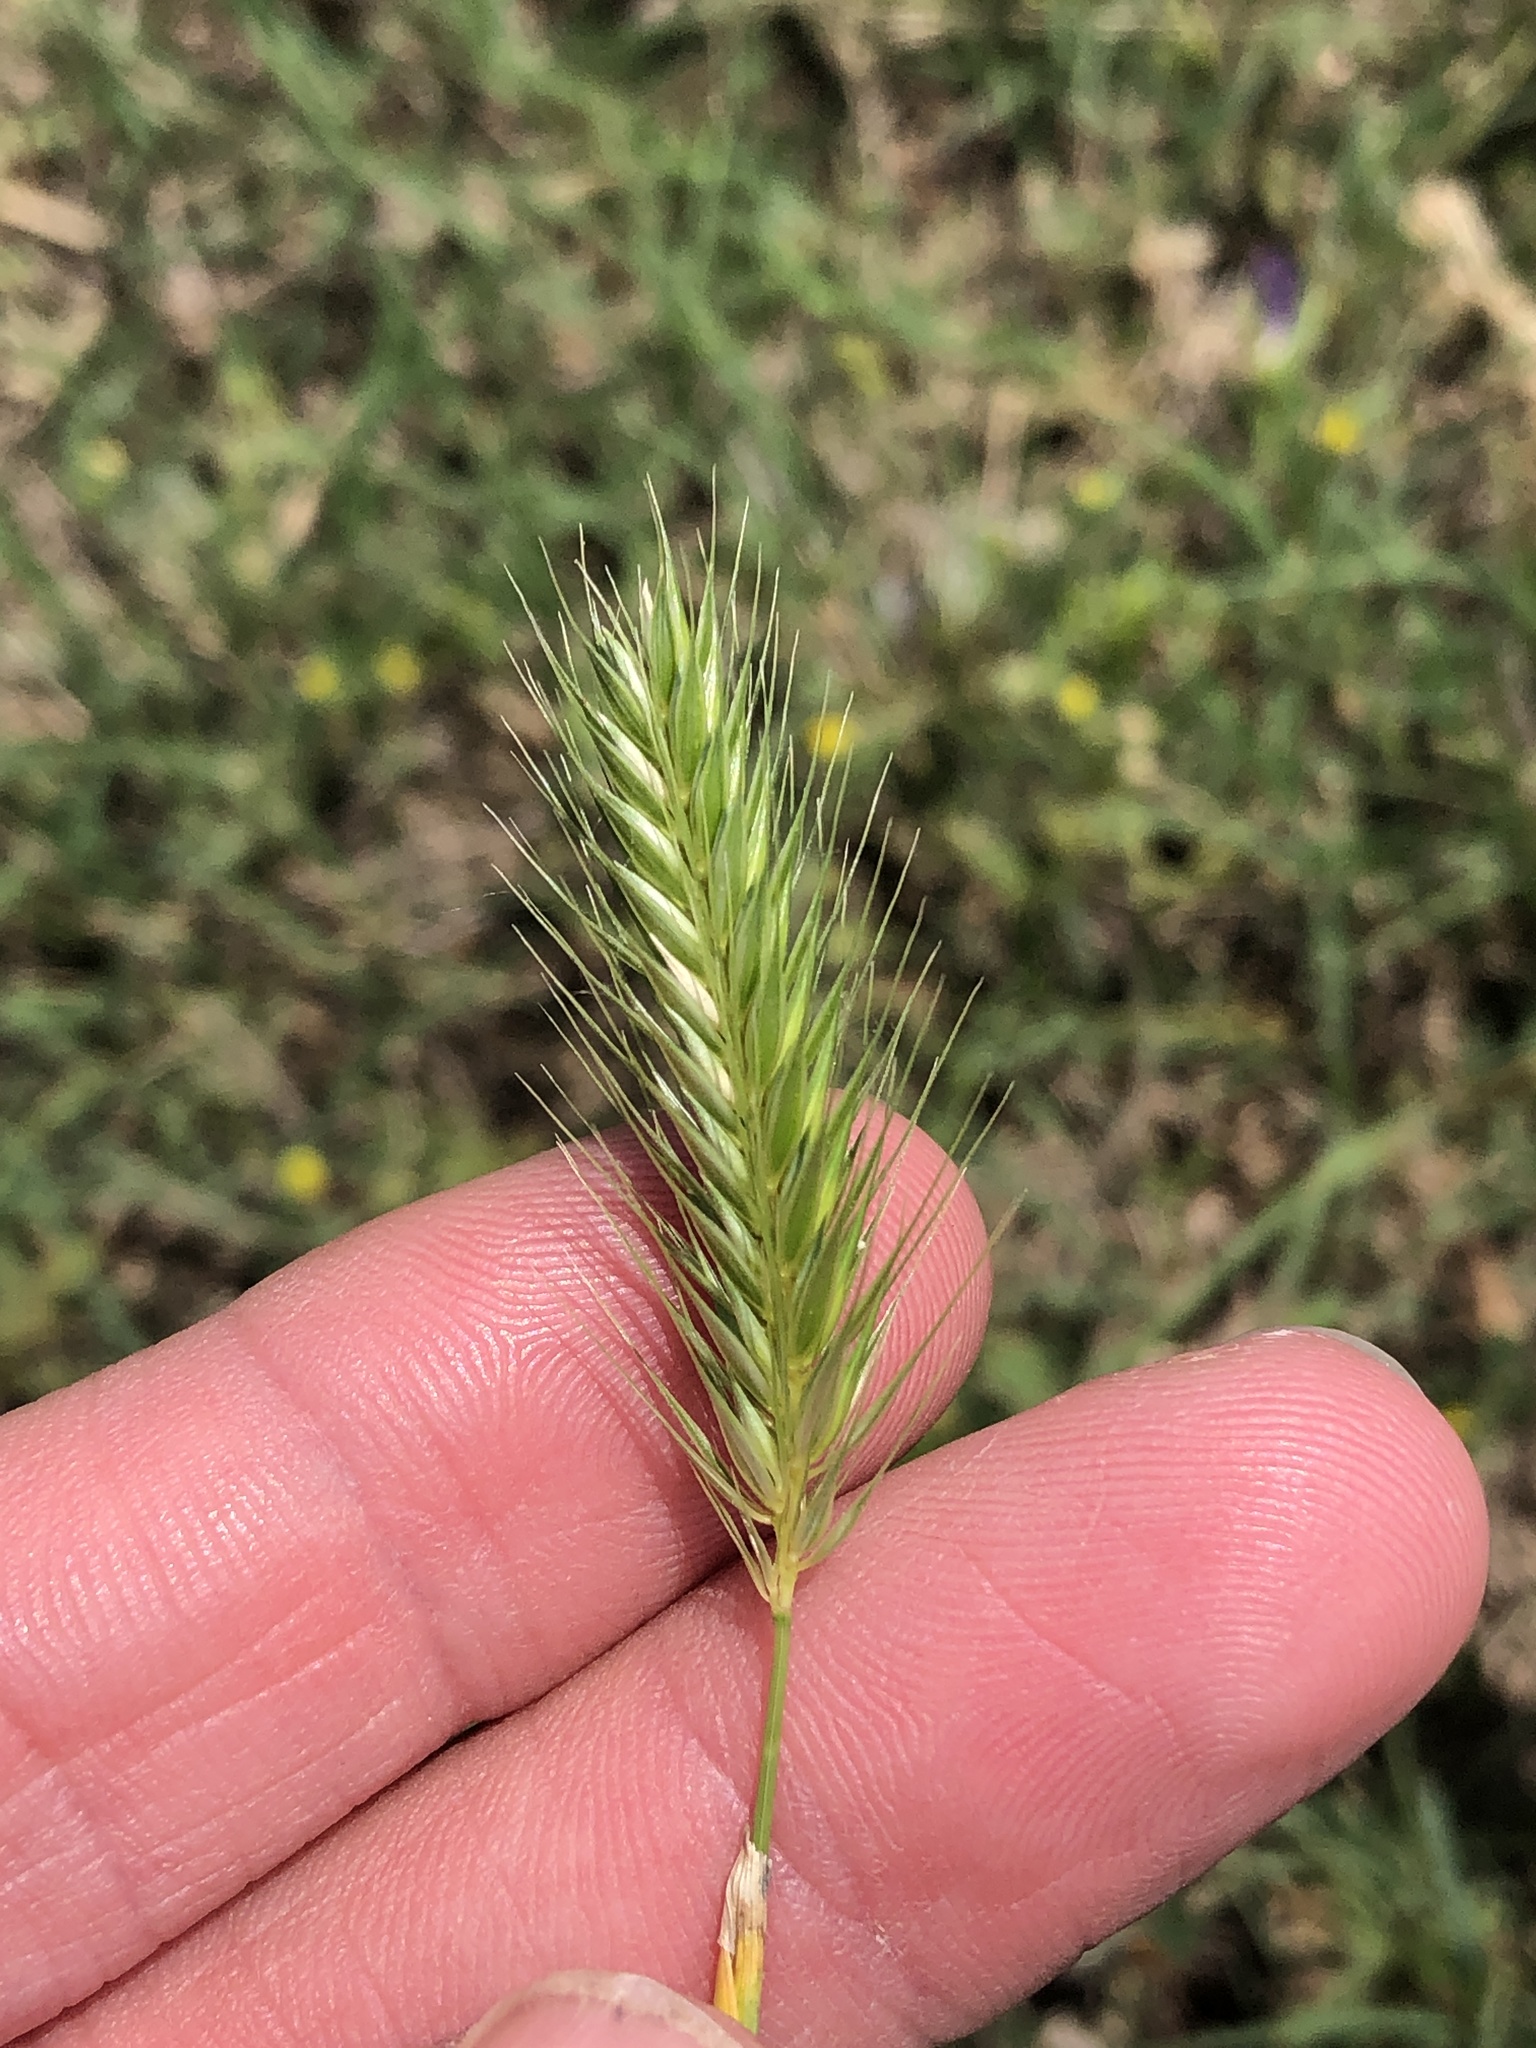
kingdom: Plantae
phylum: Tracheophyta
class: Liliopsida
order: Poales
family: Poaceae
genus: Hordeum
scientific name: Hordeum pusillum
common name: Little barley
